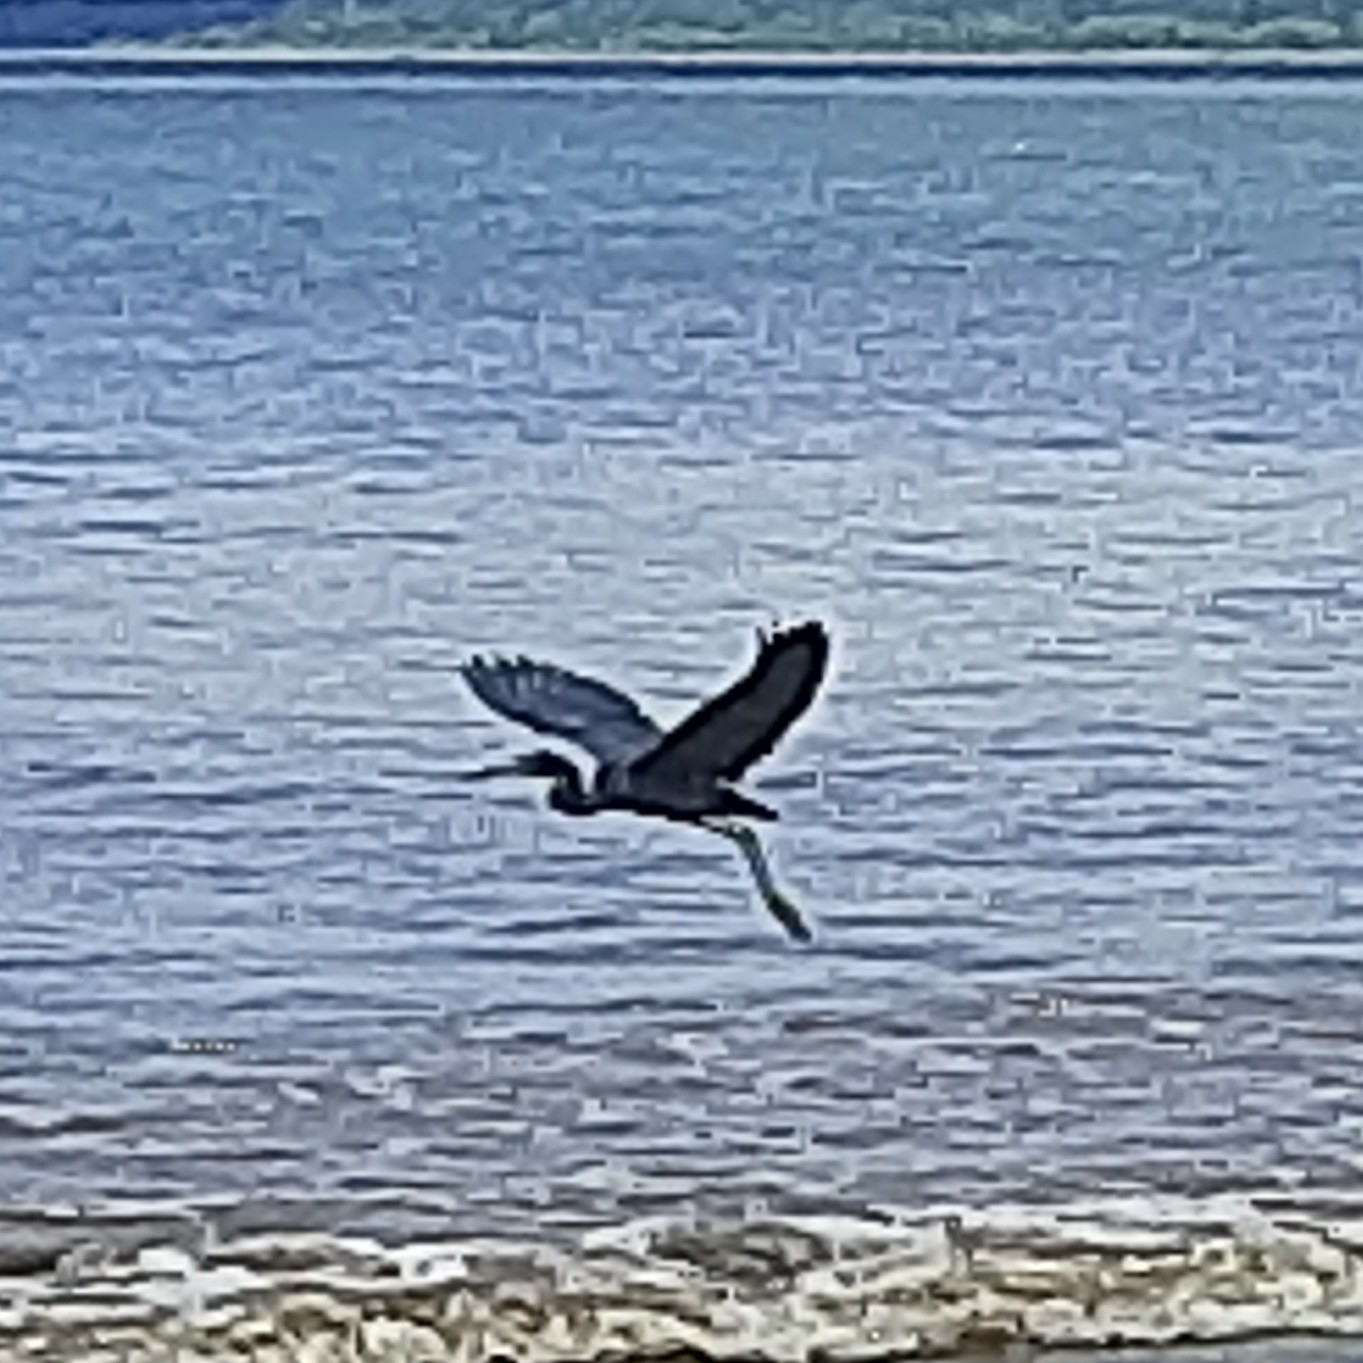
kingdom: Animalia
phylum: Chordata
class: Aves
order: Pelecaniformes
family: Ardeidae
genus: Egretta
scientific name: Egretta caerulea
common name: Little blue heron
